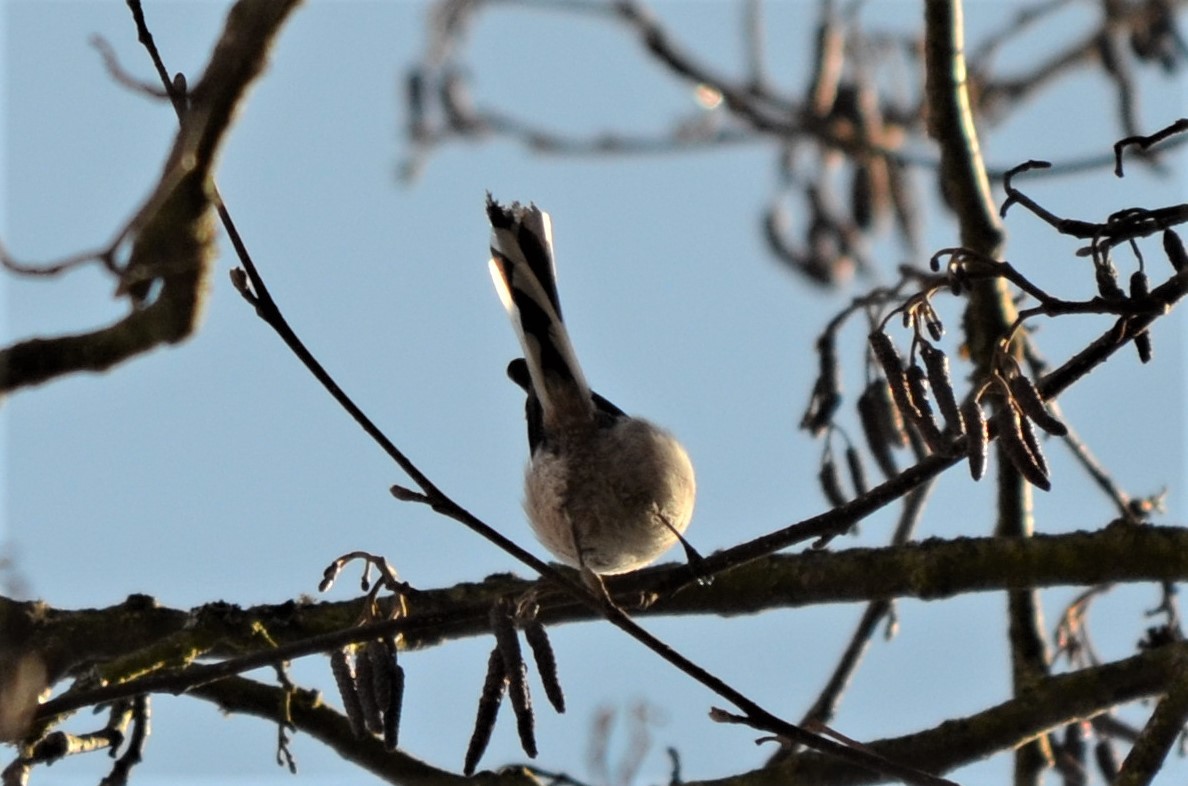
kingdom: Animalia
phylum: Chordata
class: Aves
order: Passeriformes
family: Aegithalidae
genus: Aegithalos
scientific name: Aegithalos caudatus
